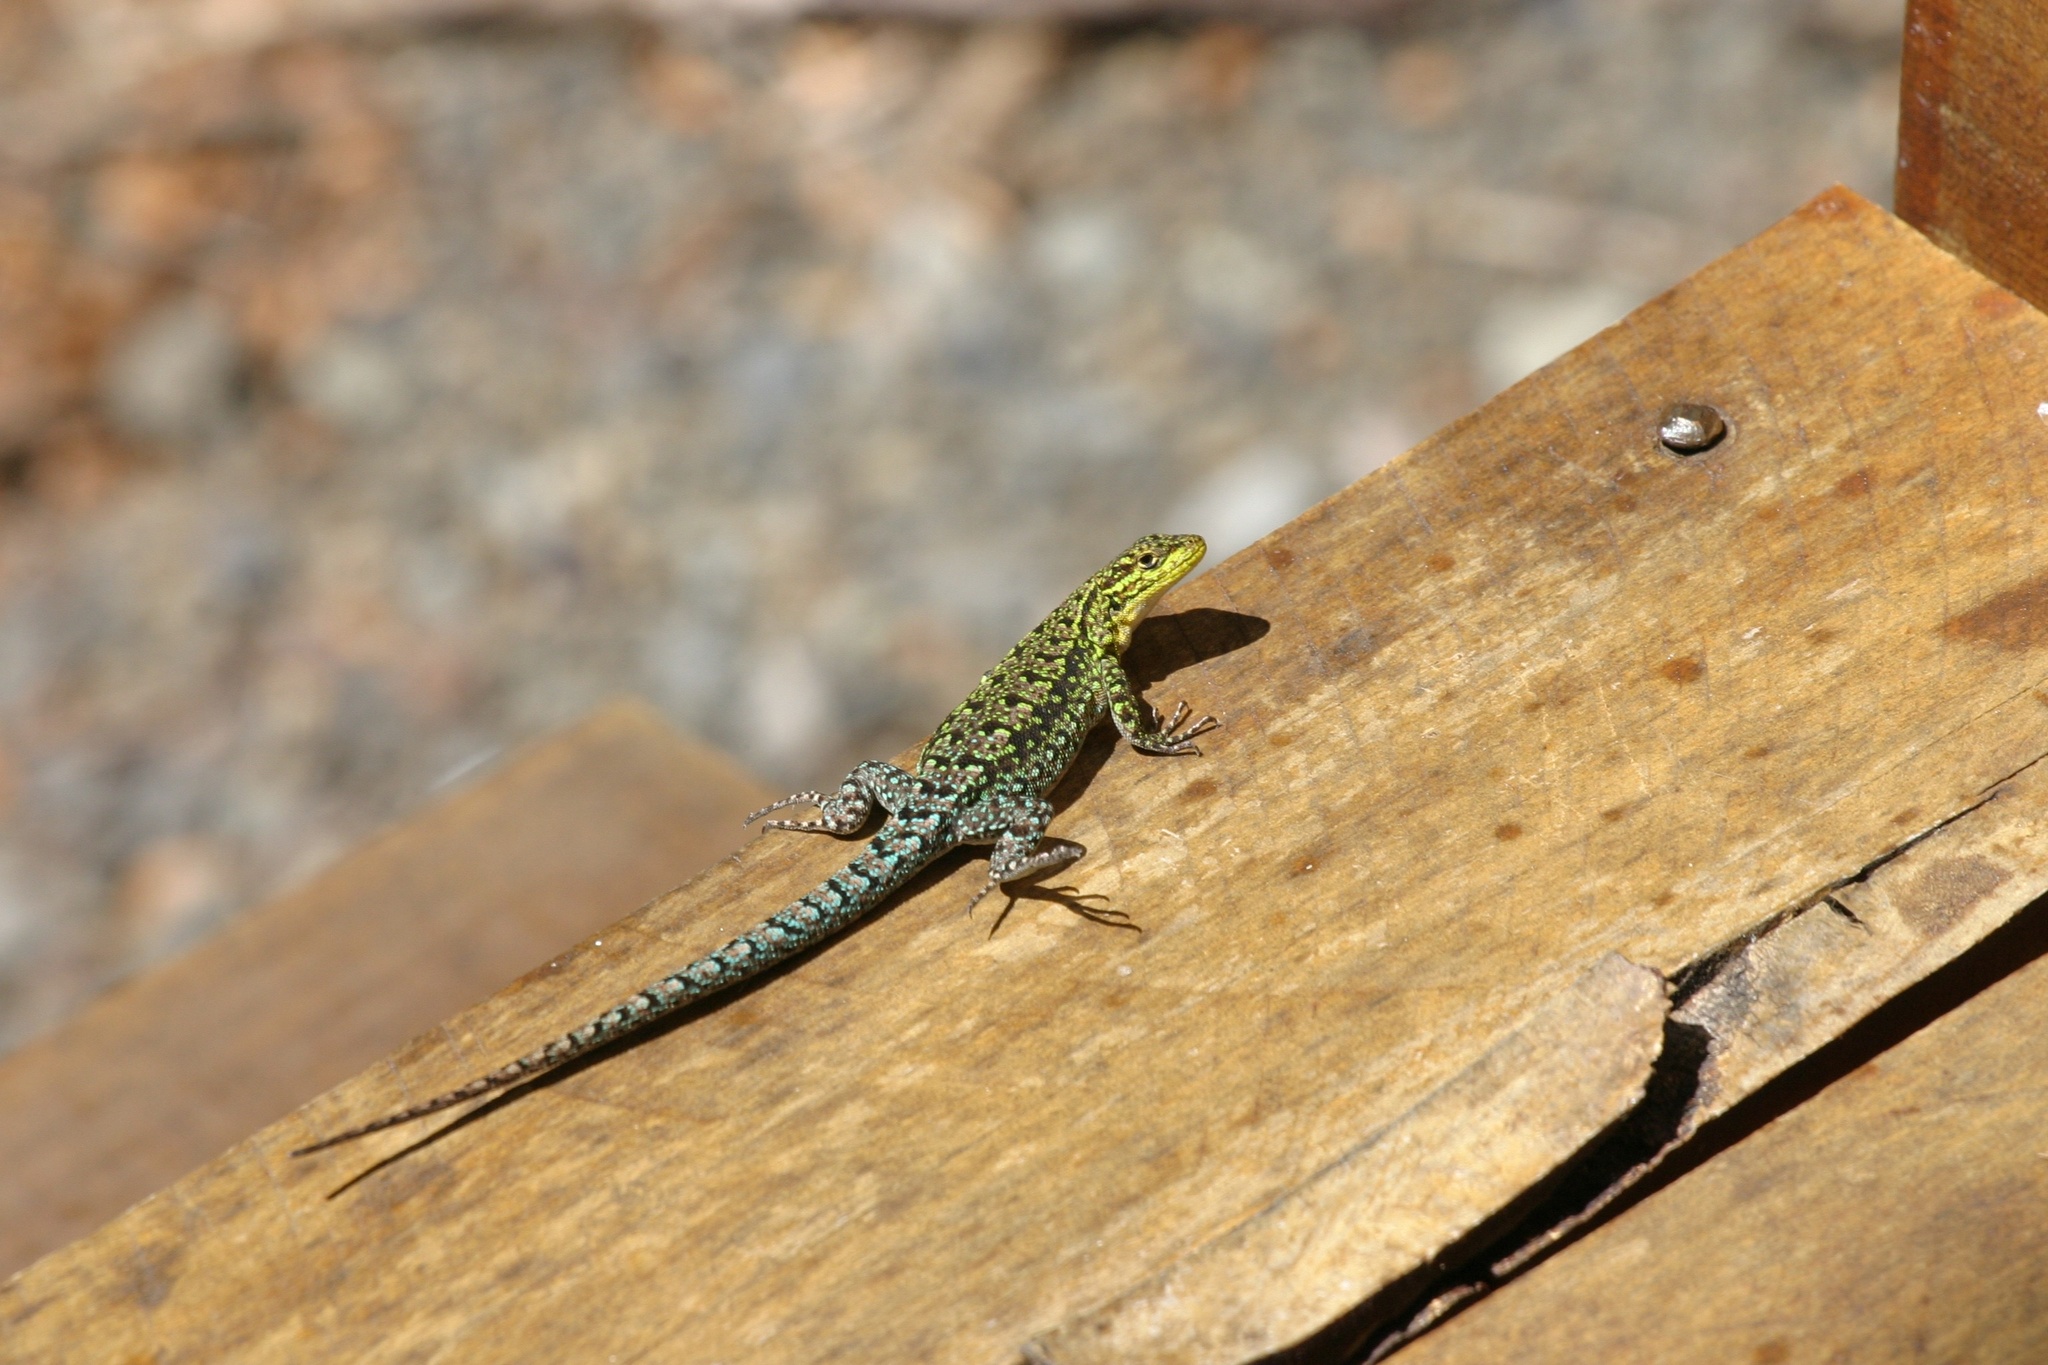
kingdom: Animalia
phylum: Chordata
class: Squamata
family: Liolaemidae
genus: Liolaemus
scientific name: Liolaemus tenuis
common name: Thin tree iguana
